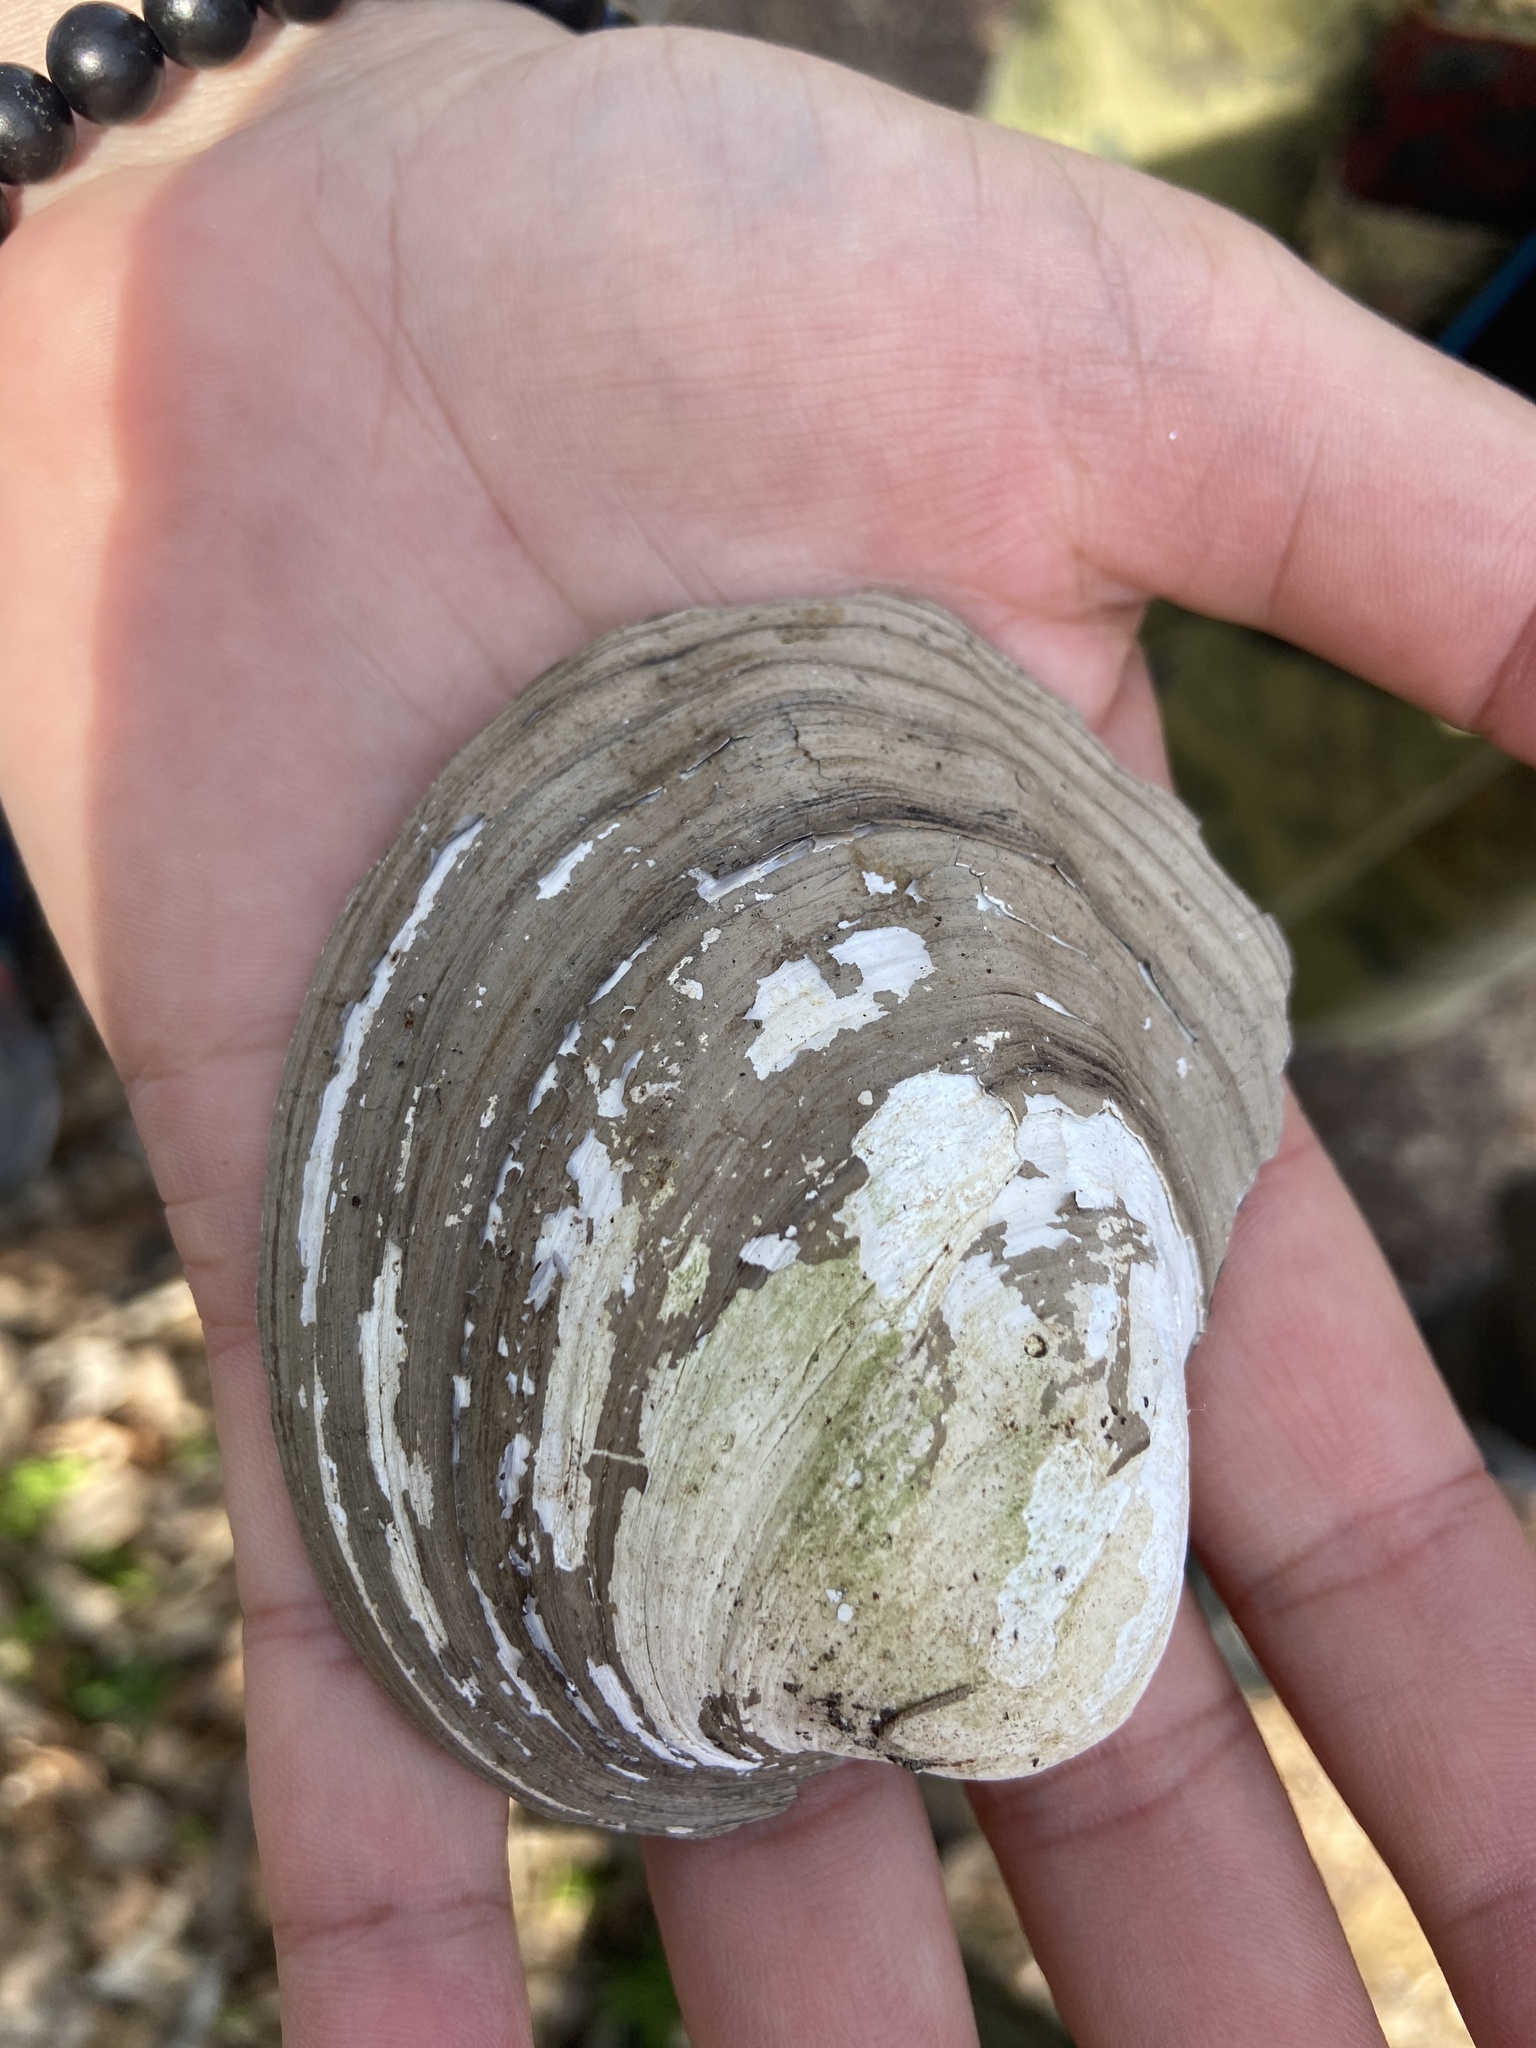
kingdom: Animalia
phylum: Mollusca
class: Bivalvia
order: Unionida
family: Unionidae
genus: Amblema
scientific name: Amblema plicata
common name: Threeridge
